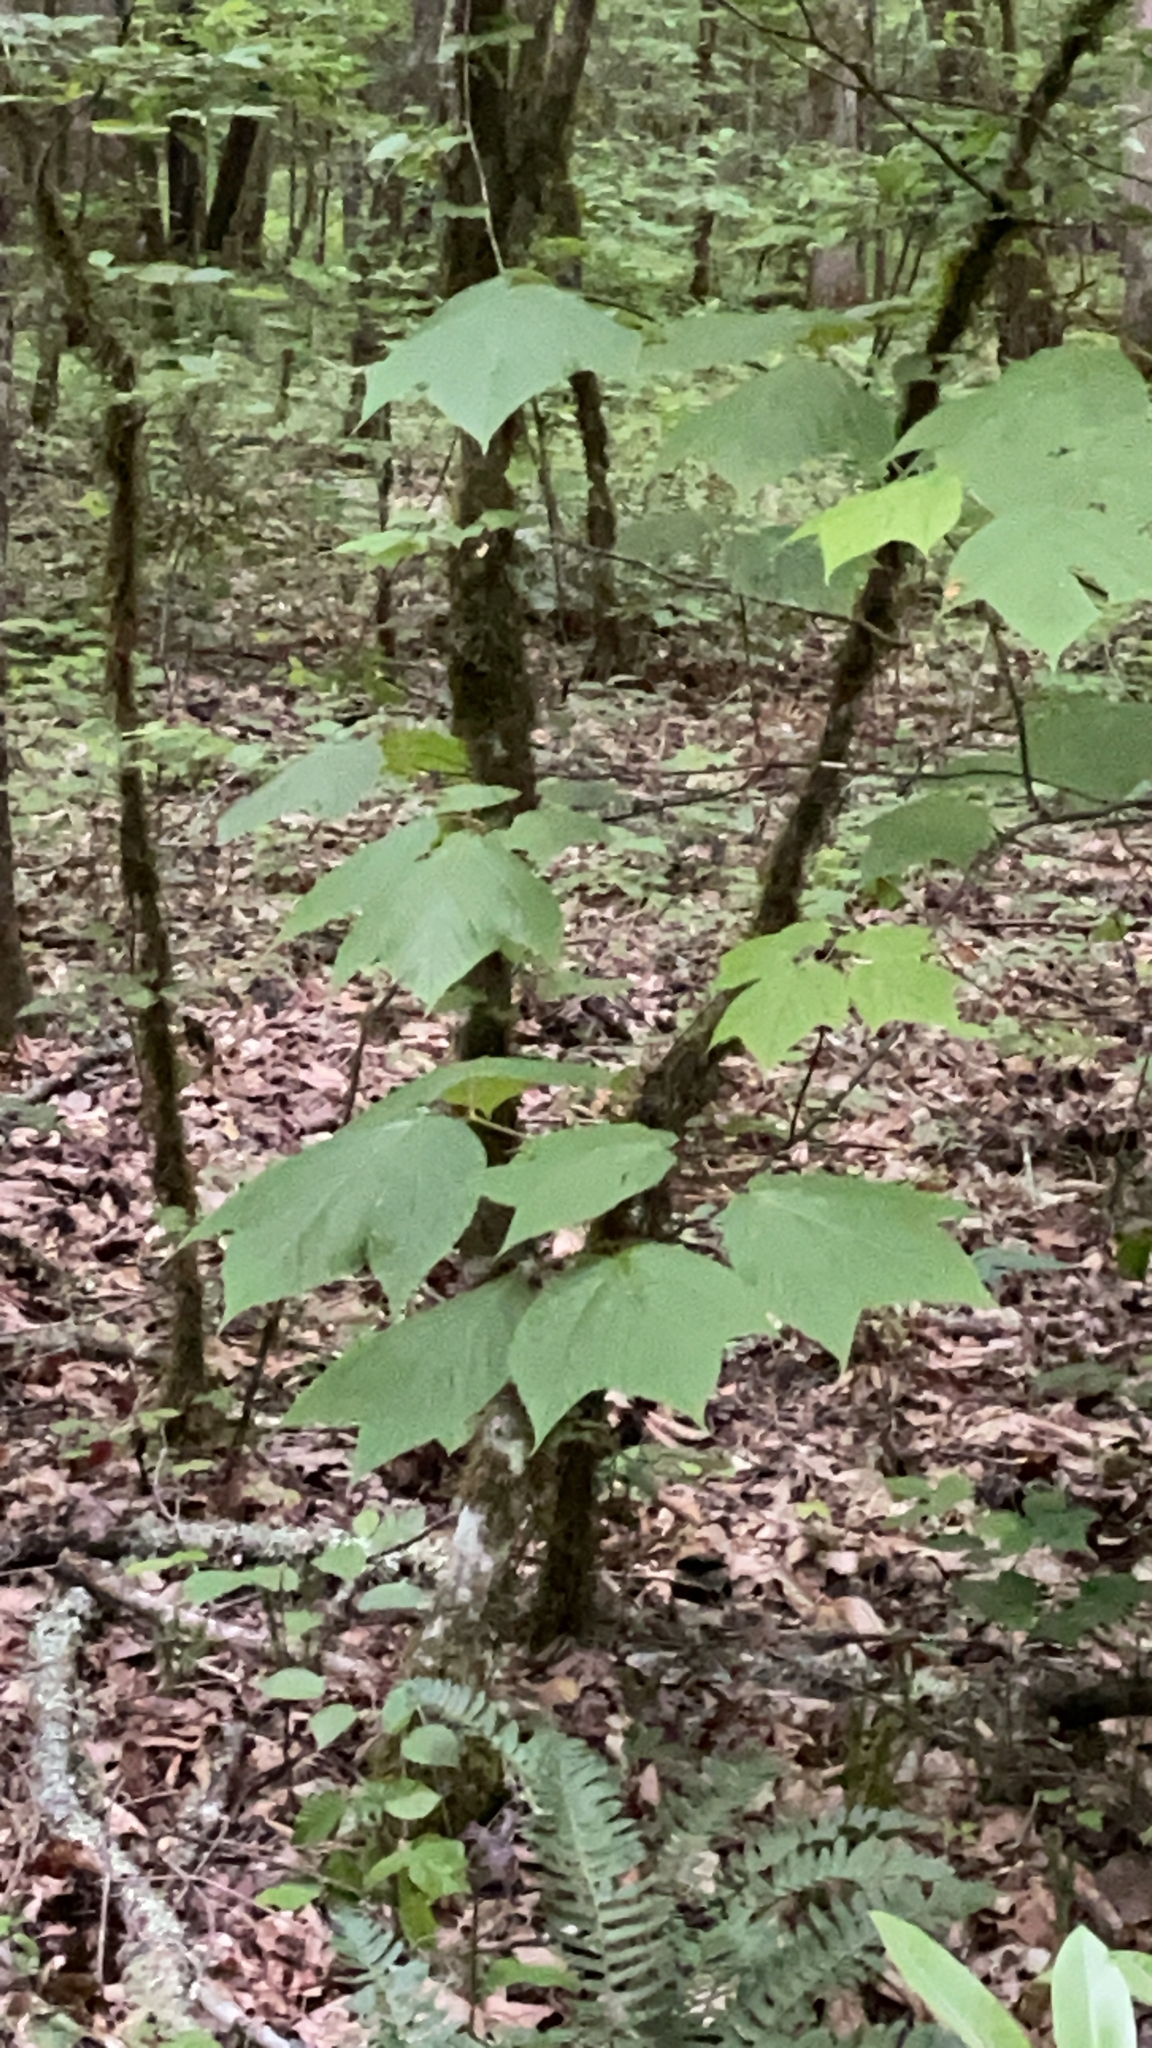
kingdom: Plantae
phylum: Tracheophyta
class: Magnoliopsida
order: Sapindales
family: Sapindaceae
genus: Acer
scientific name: Acer pensylvanicum
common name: Moosewood
